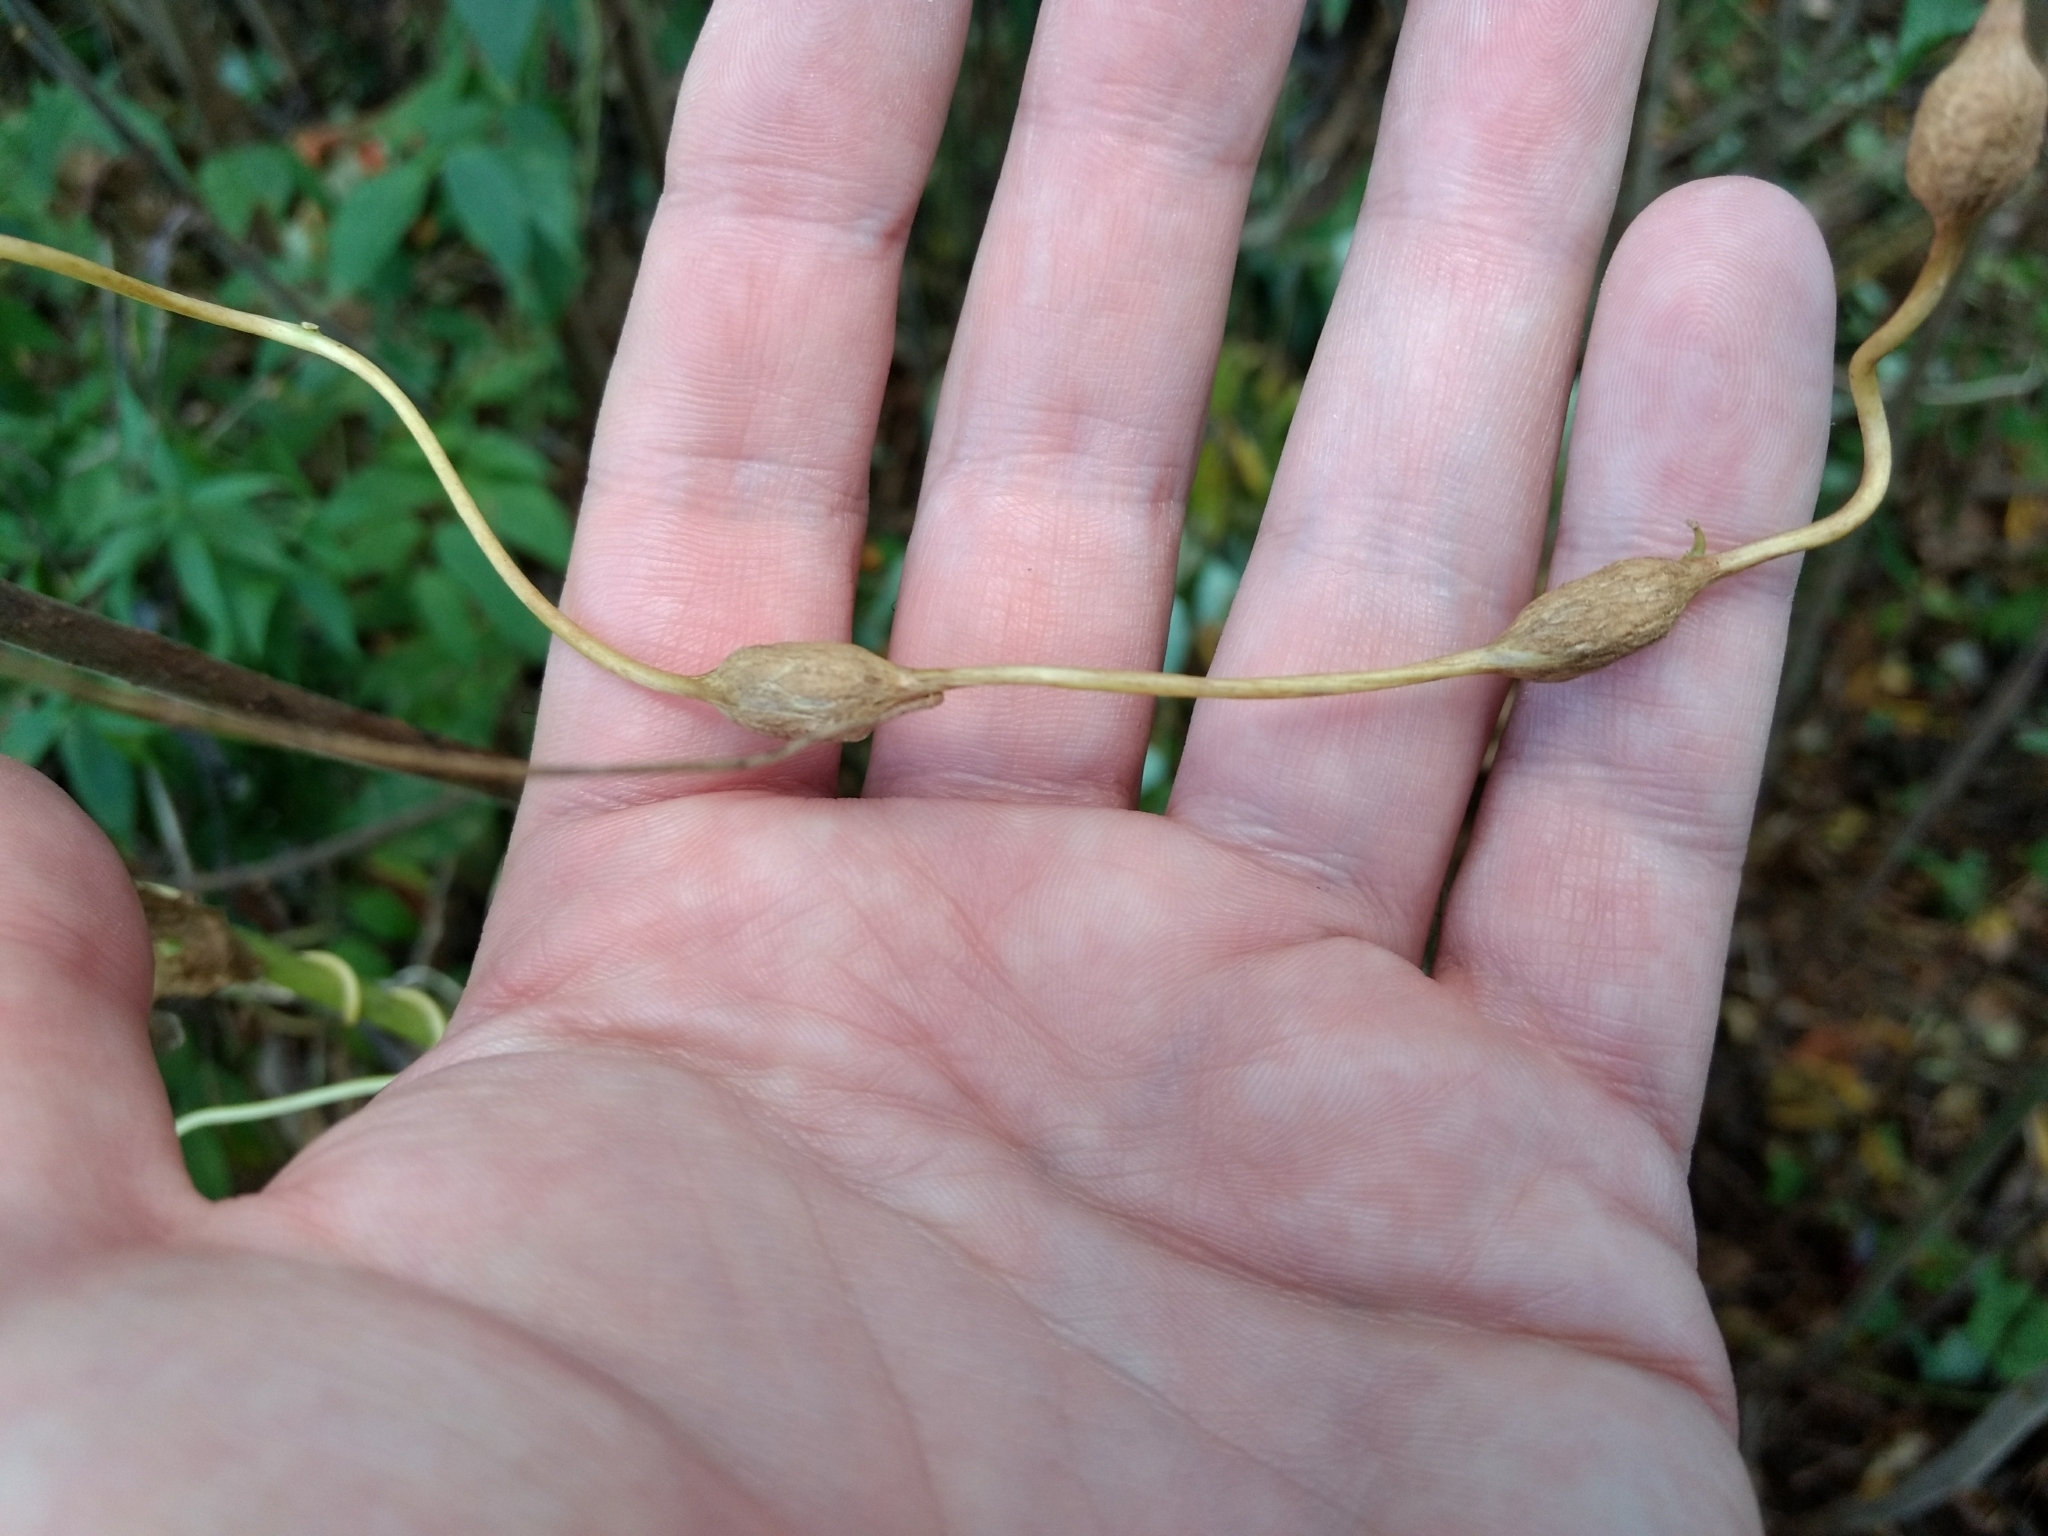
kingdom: Plantae
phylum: Tracheophyta
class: Magnoliopsida
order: Solanales
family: Convolvulaceae
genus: Calystegia
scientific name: Calystegia sepium
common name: Hedge bindweed
